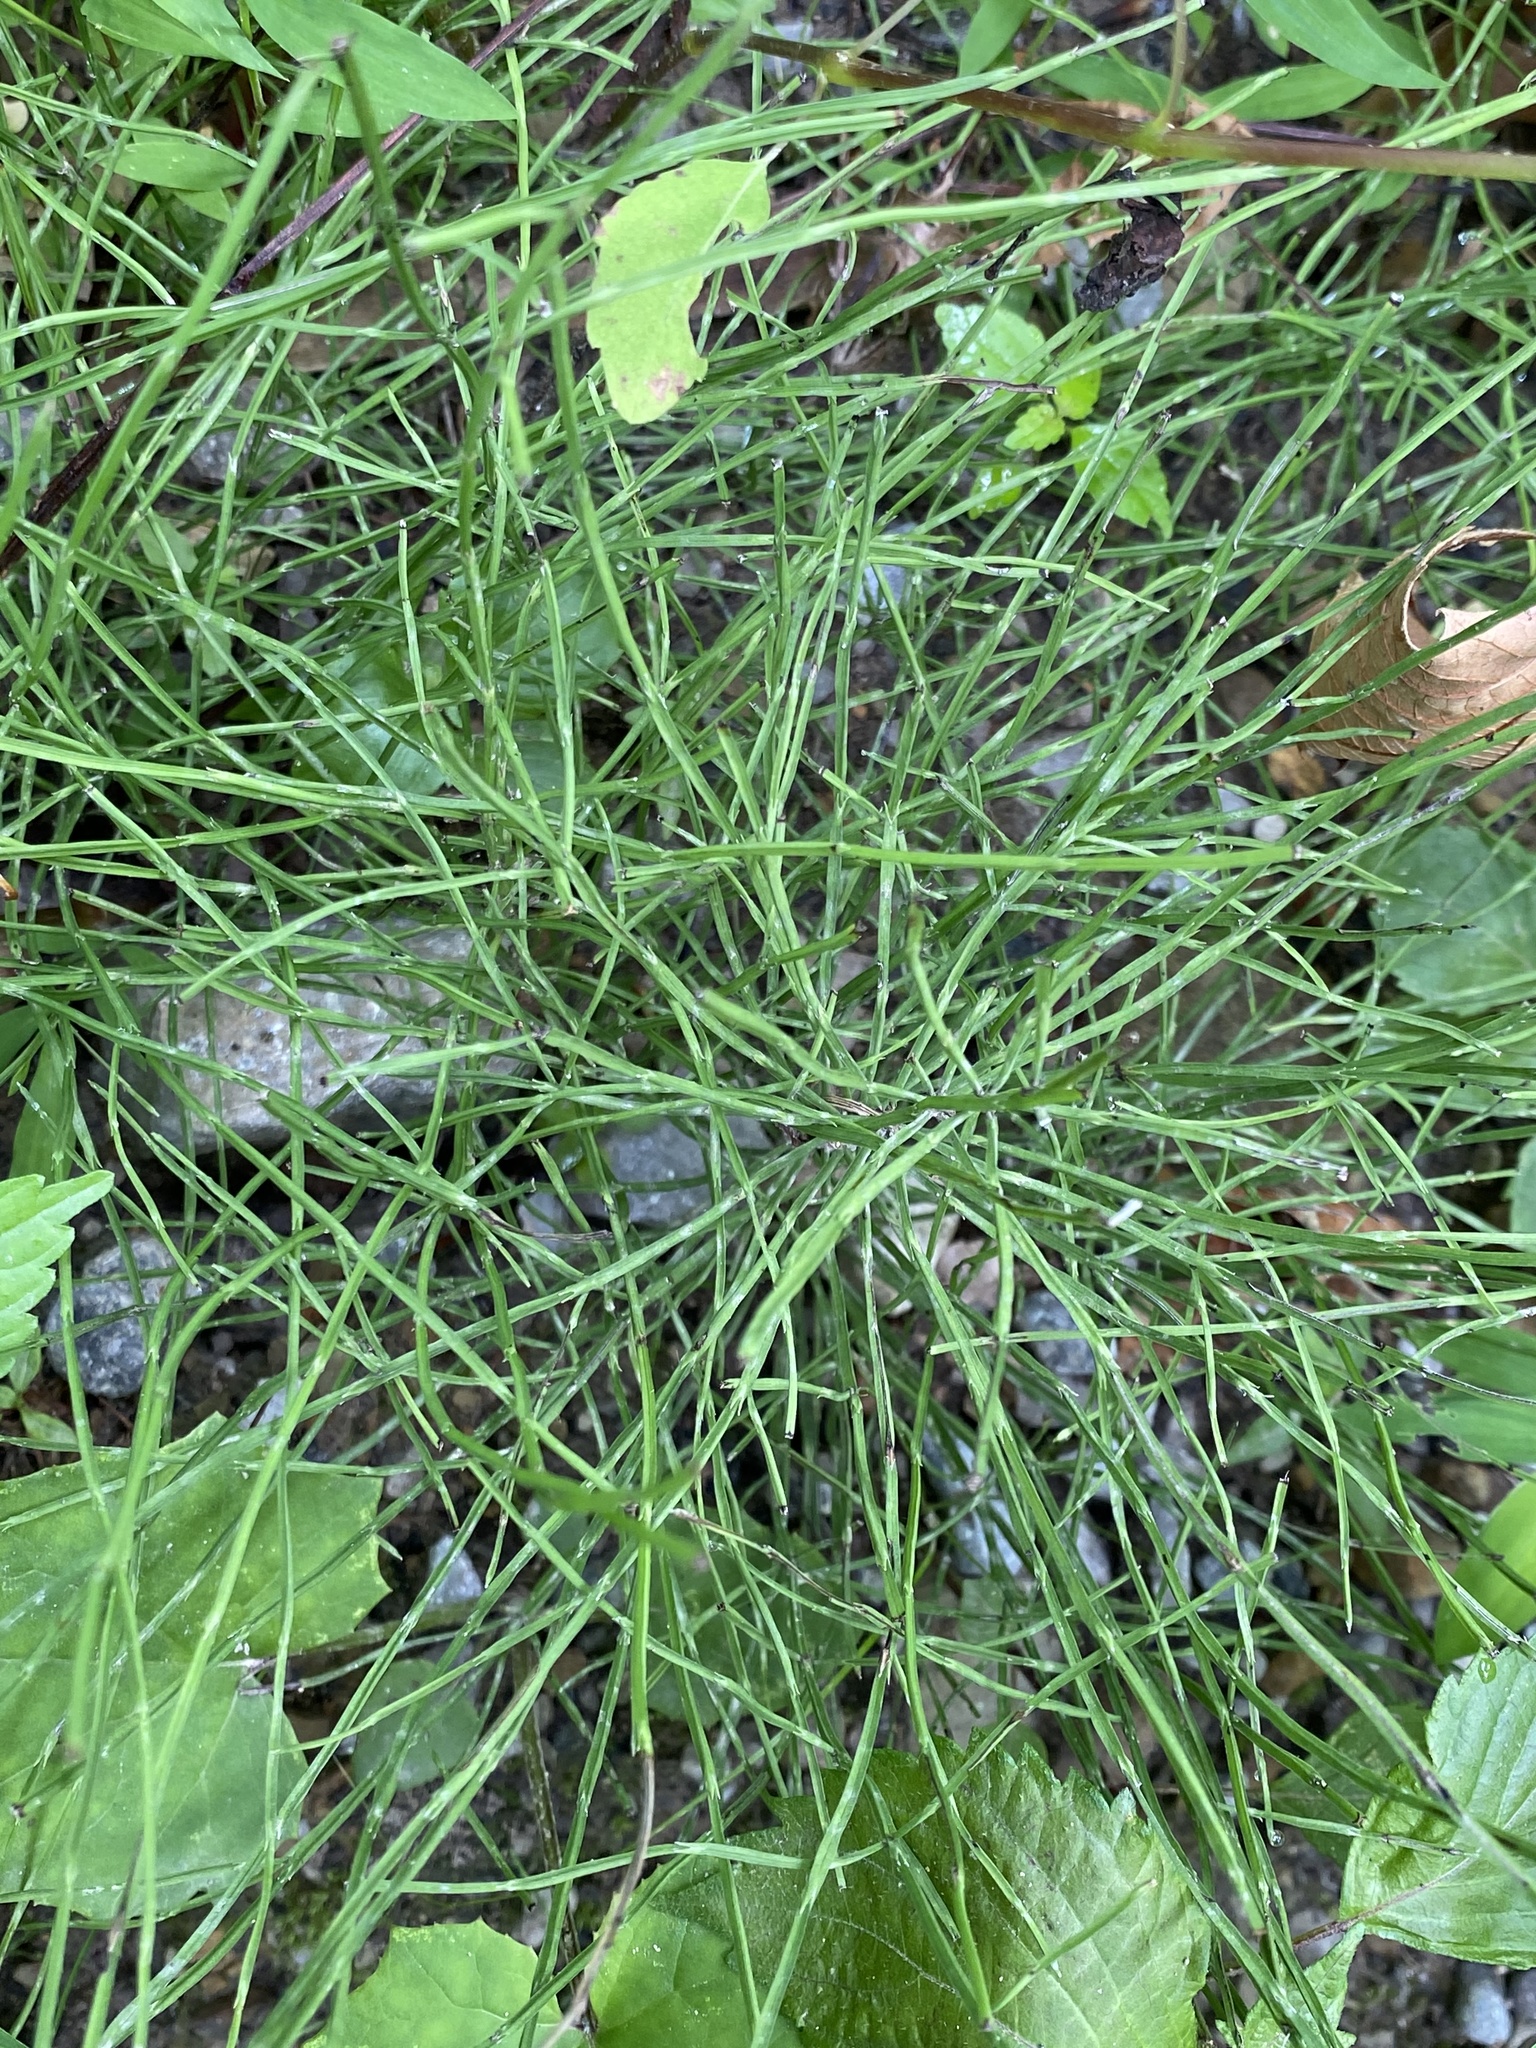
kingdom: Plantae
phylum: Tracheophyta
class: Polypodiopsida
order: Equisetales
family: Equisetaceae
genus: Equisetum
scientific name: Equisetum arvense
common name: Field horsetail
